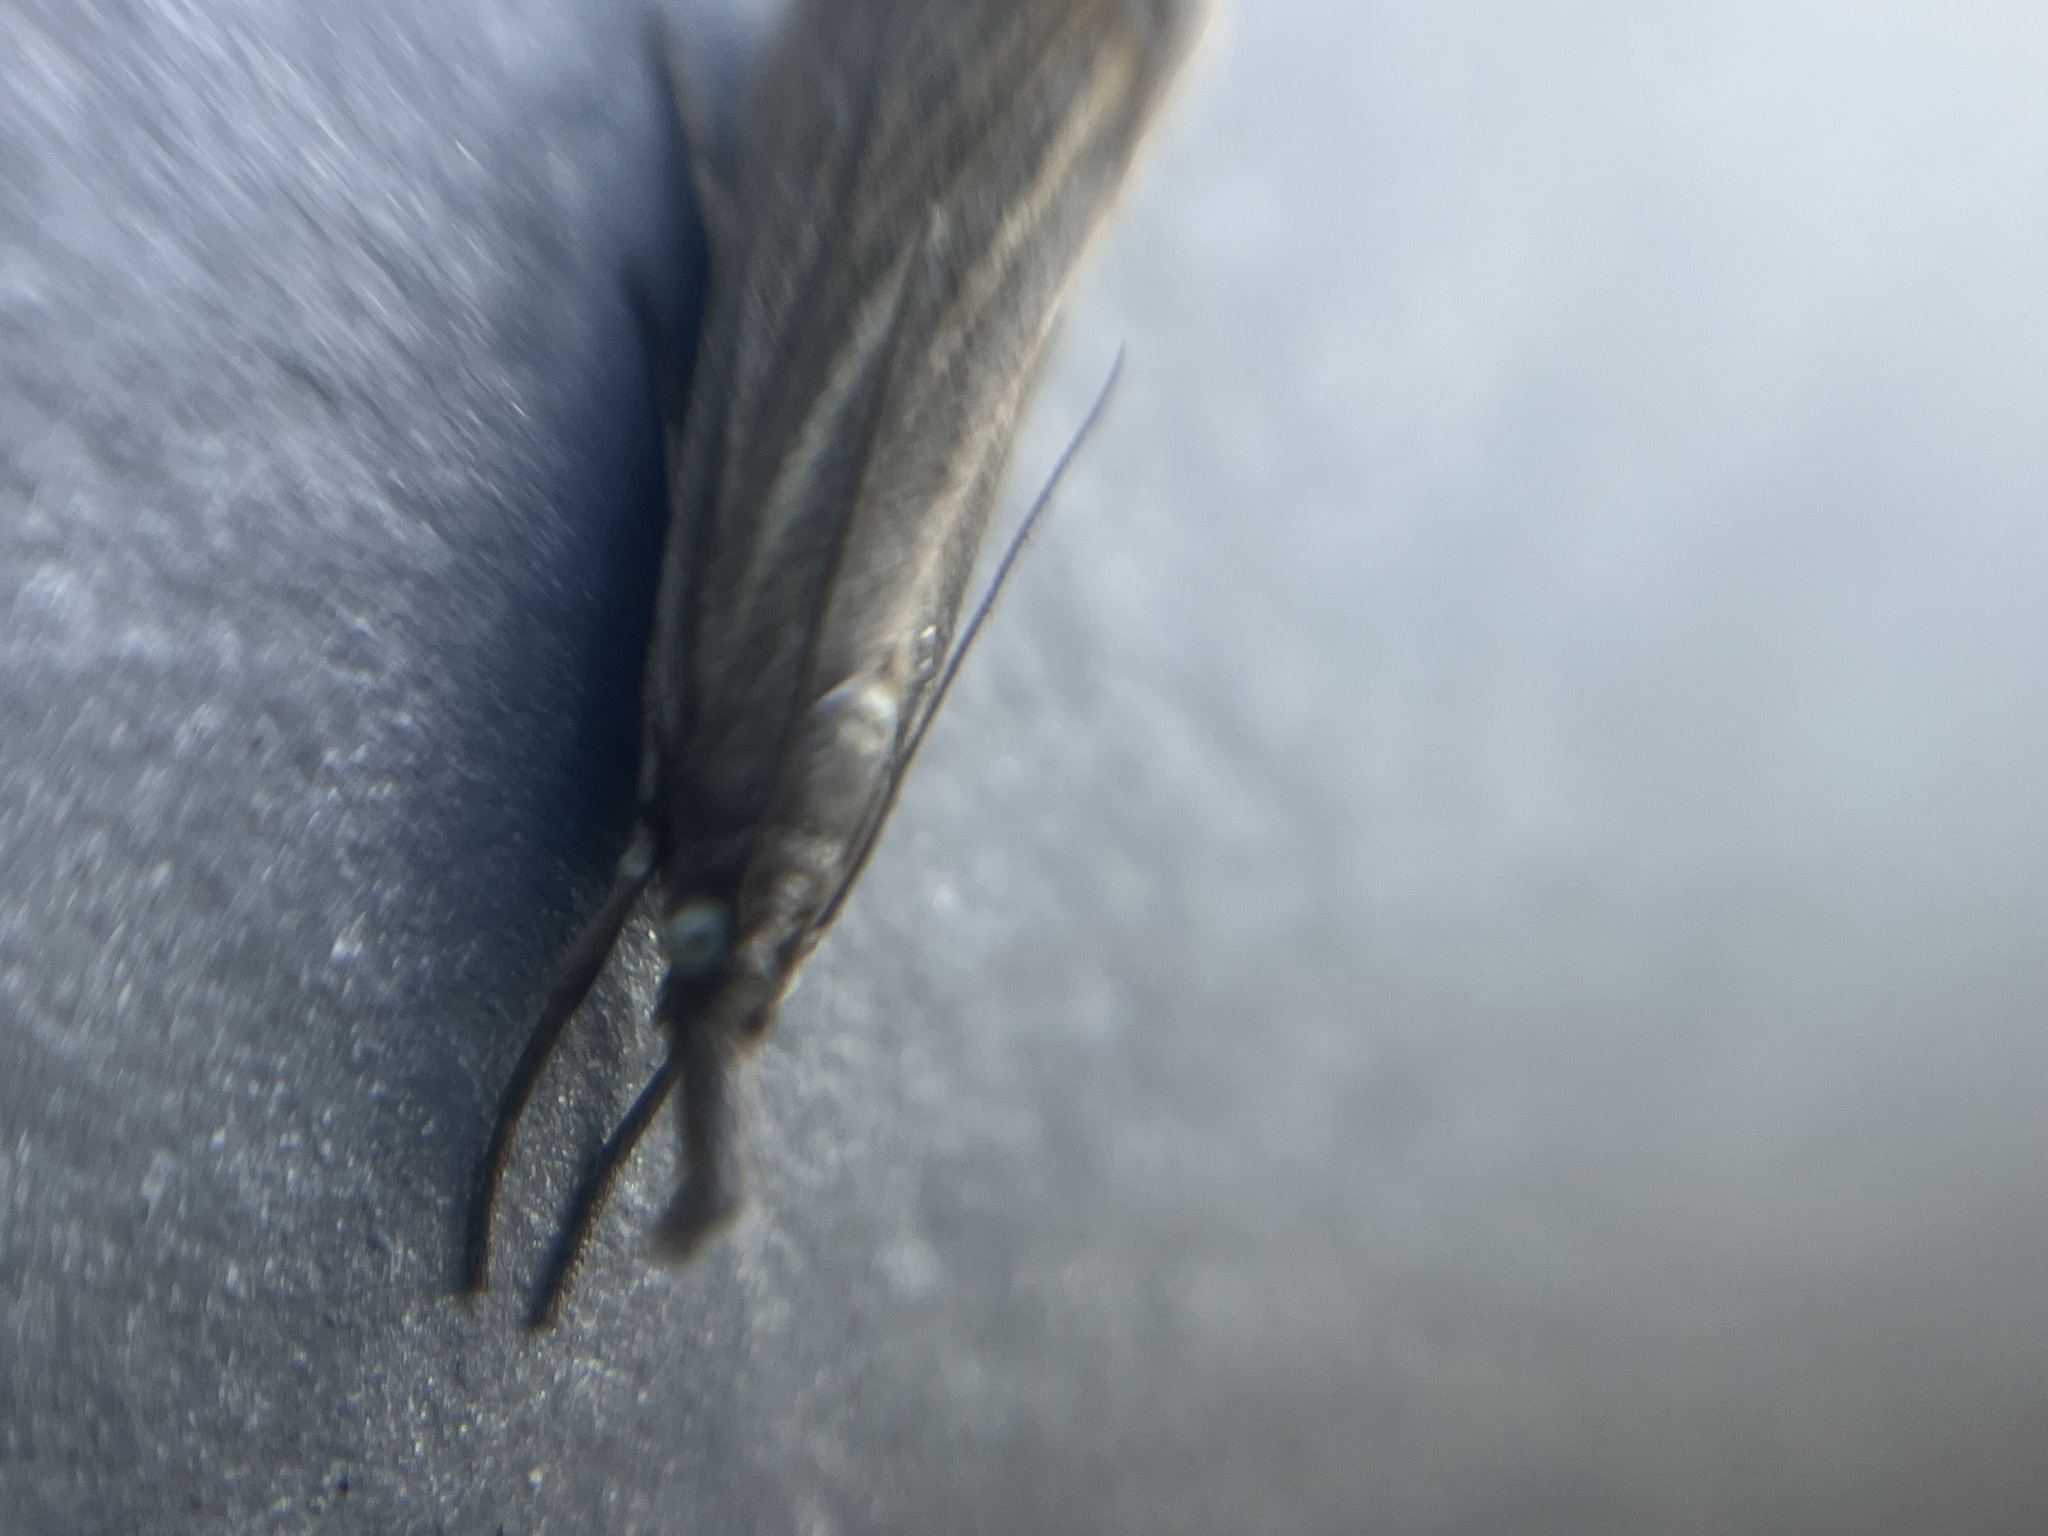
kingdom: Animalia
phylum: Arthropoda
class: Insecta
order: Lepidoptera
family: Crambidae
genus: Chrysoteuchia
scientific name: Chrysoteuchia culmella
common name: Garden grass-veneer
